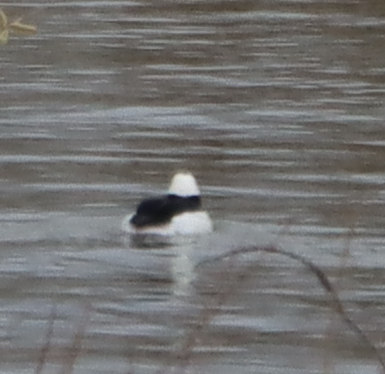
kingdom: Animalia
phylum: Chordata
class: Aves
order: Anseriformes
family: Anatidae
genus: Bucephala
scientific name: Bucephala albeola
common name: Bufflehead
